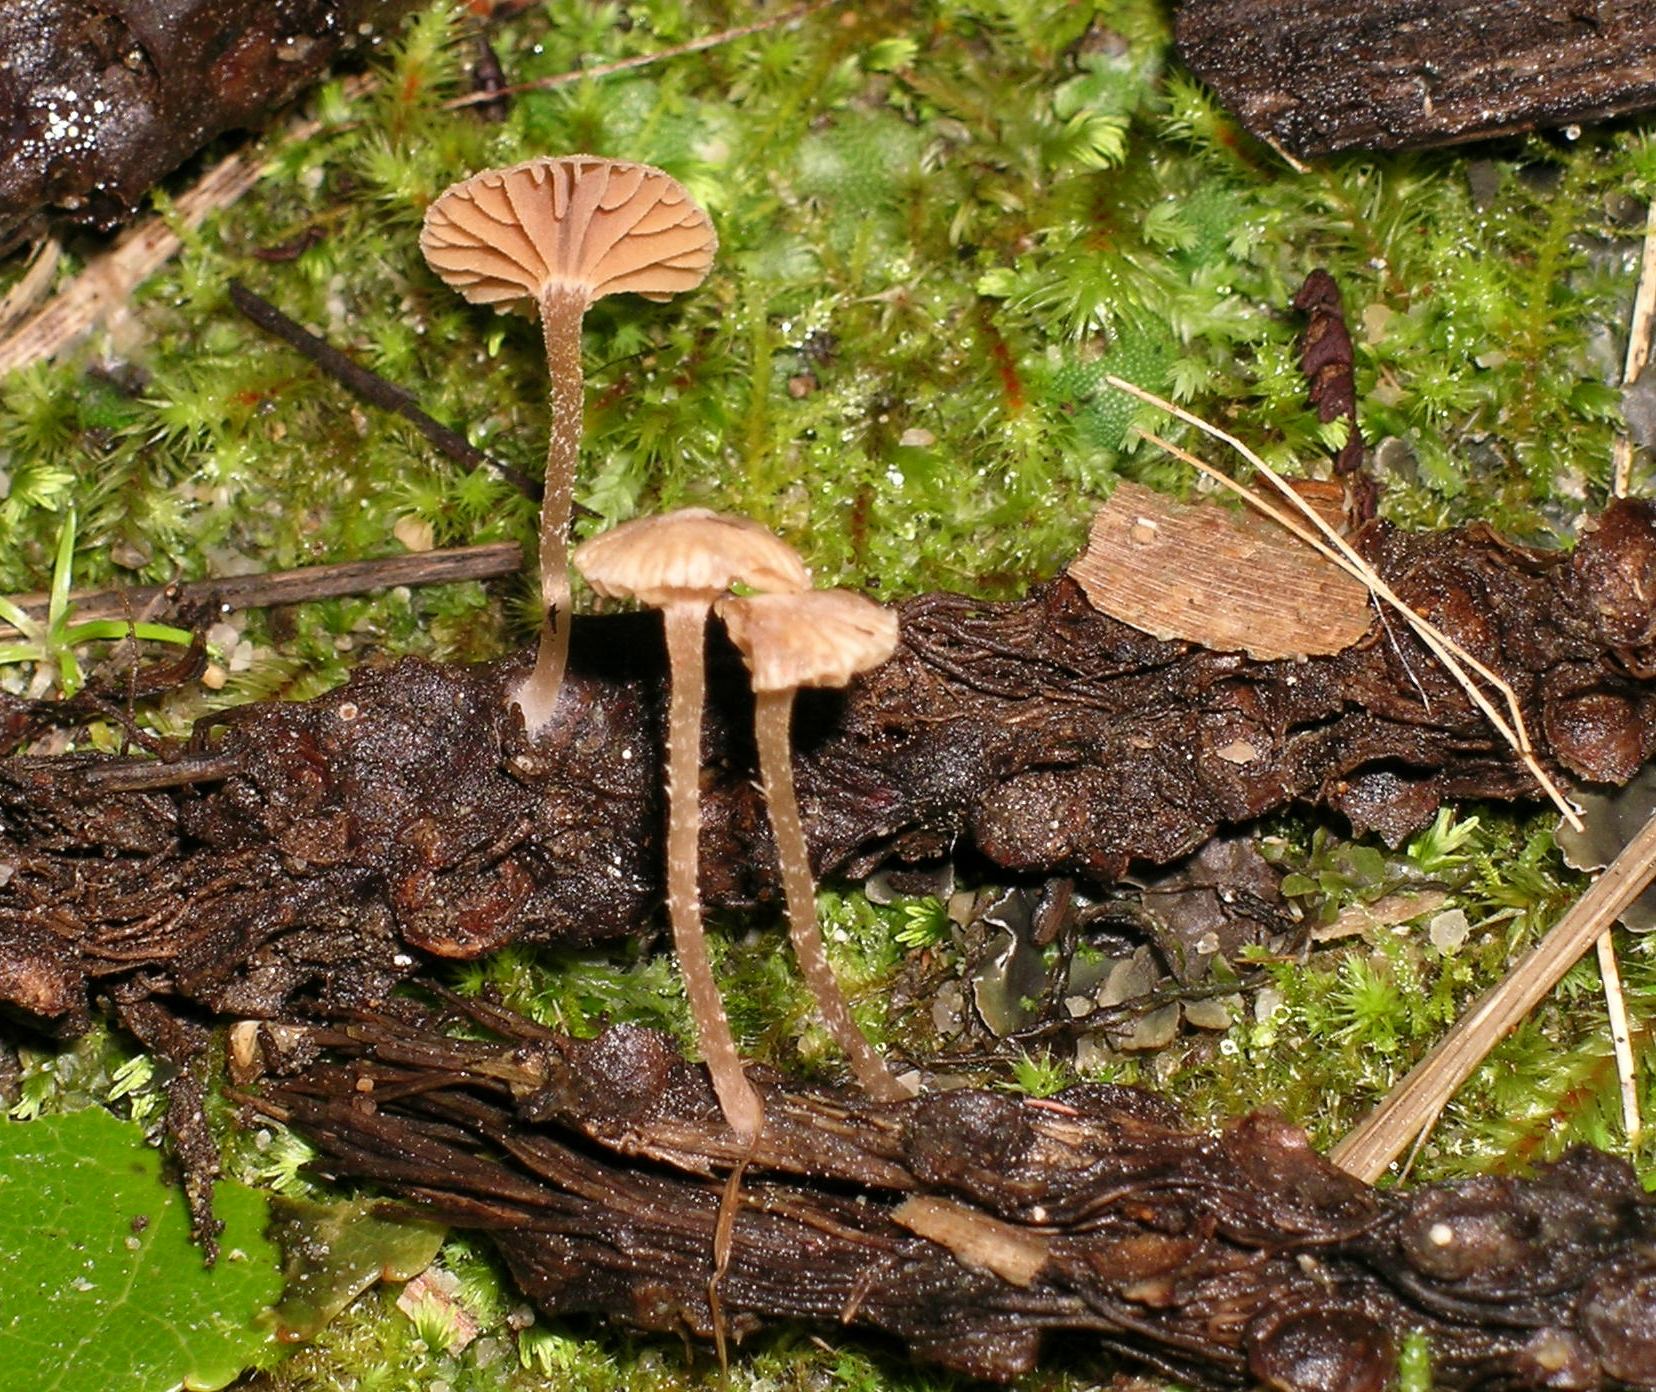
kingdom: Fungi
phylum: Basidiomycota
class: Agaricomycetes
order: Agaricales
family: Tubariaceae
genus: Tubaria
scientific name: Tubaria verrucipes
